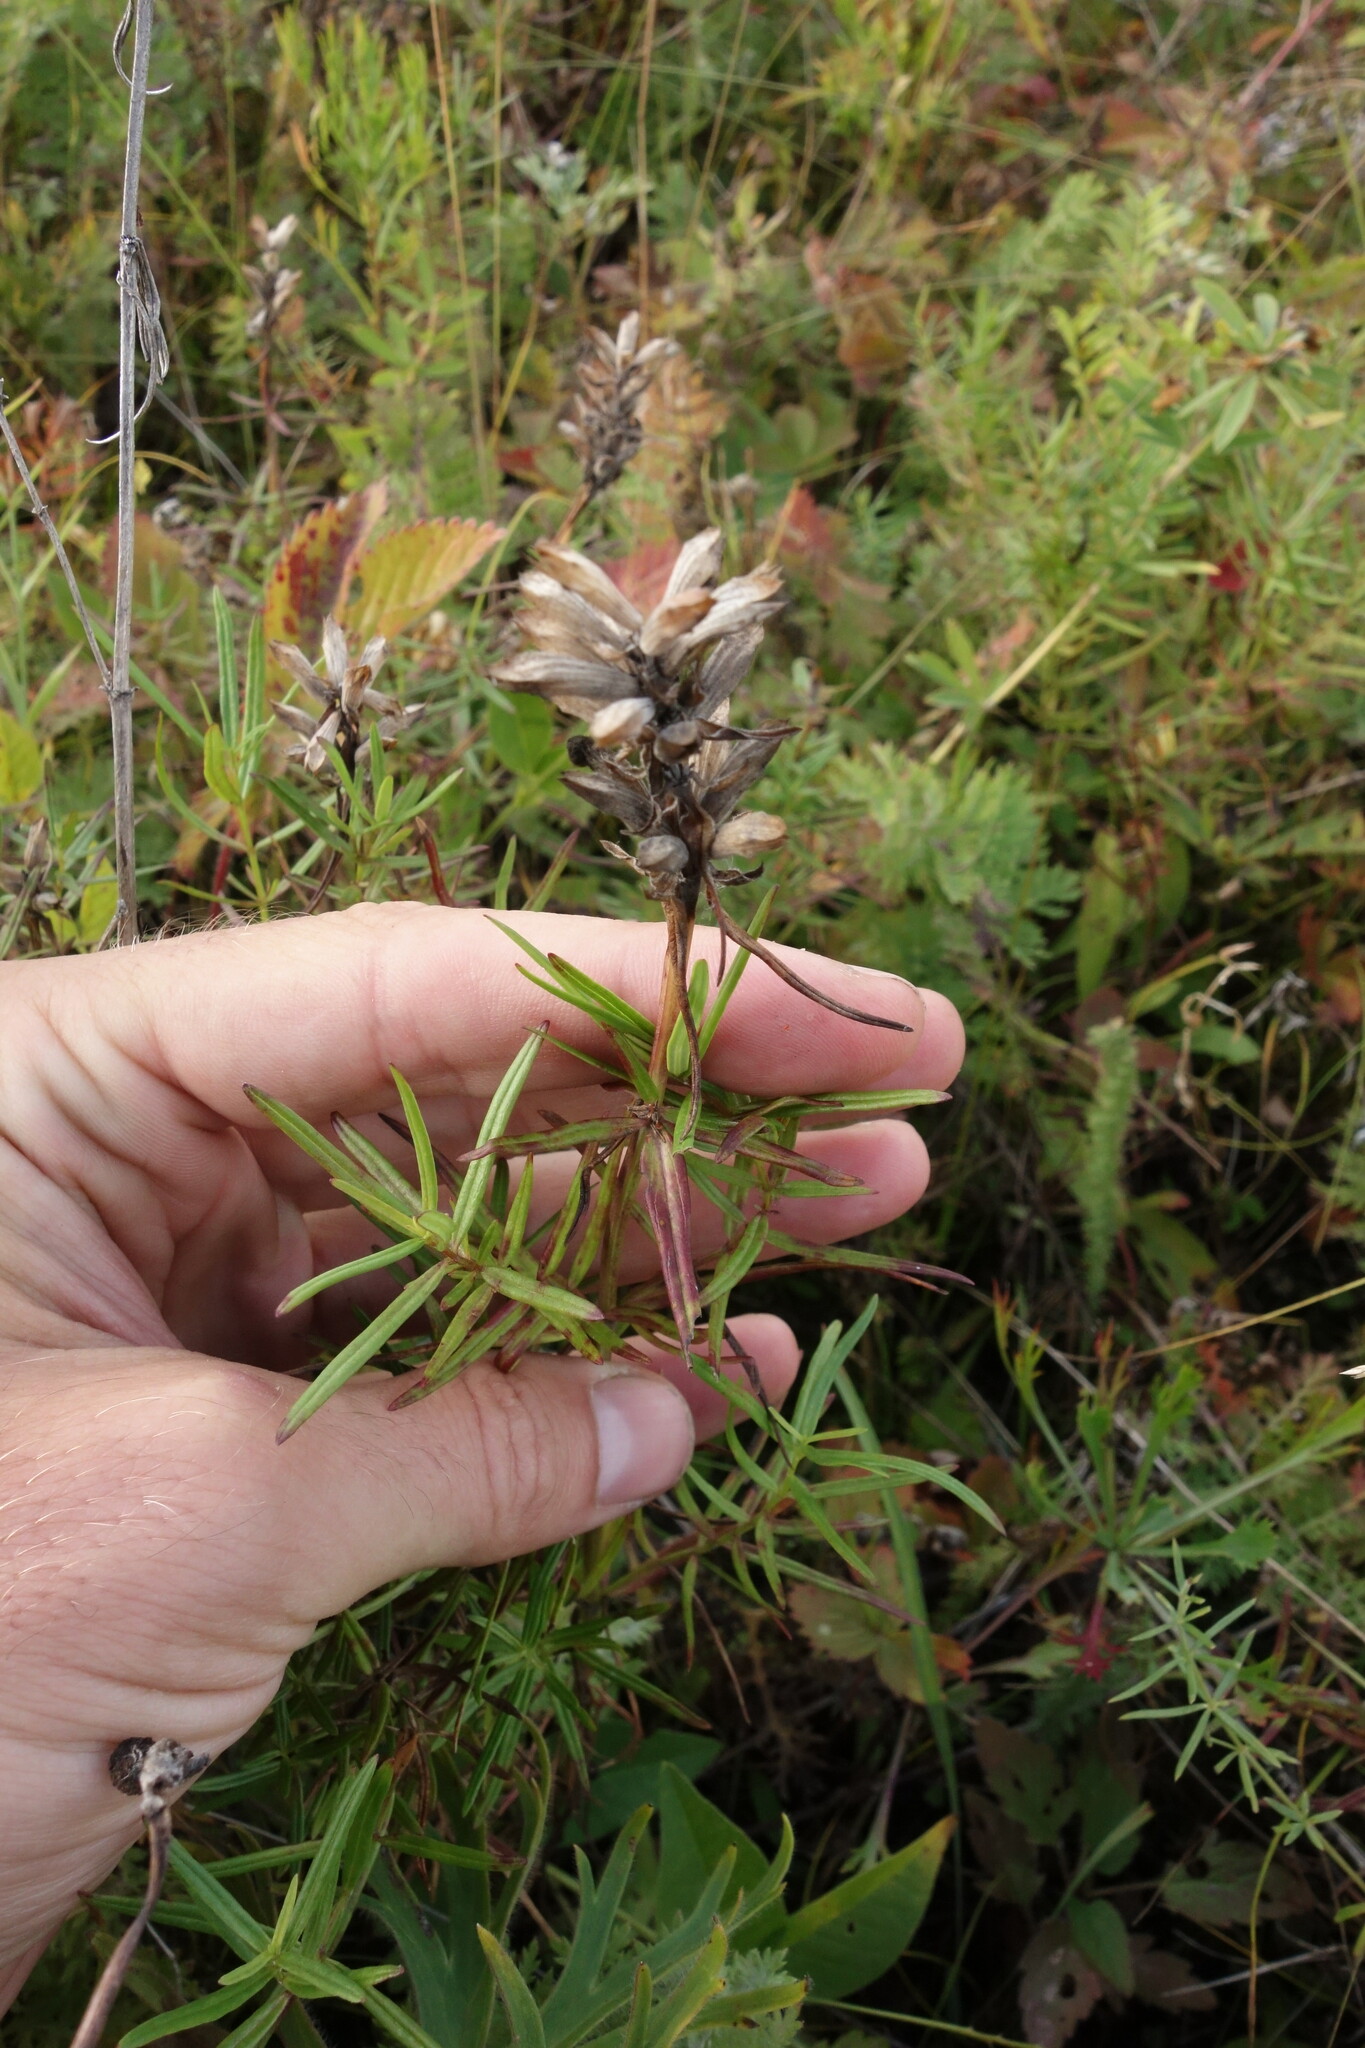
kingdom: Plantae
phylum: Tracheophyta
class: Magnoliopsida
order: Lamiales
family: Lamiaceae
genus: Dracocephalum
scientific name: Dracocephalum ruyschiana
